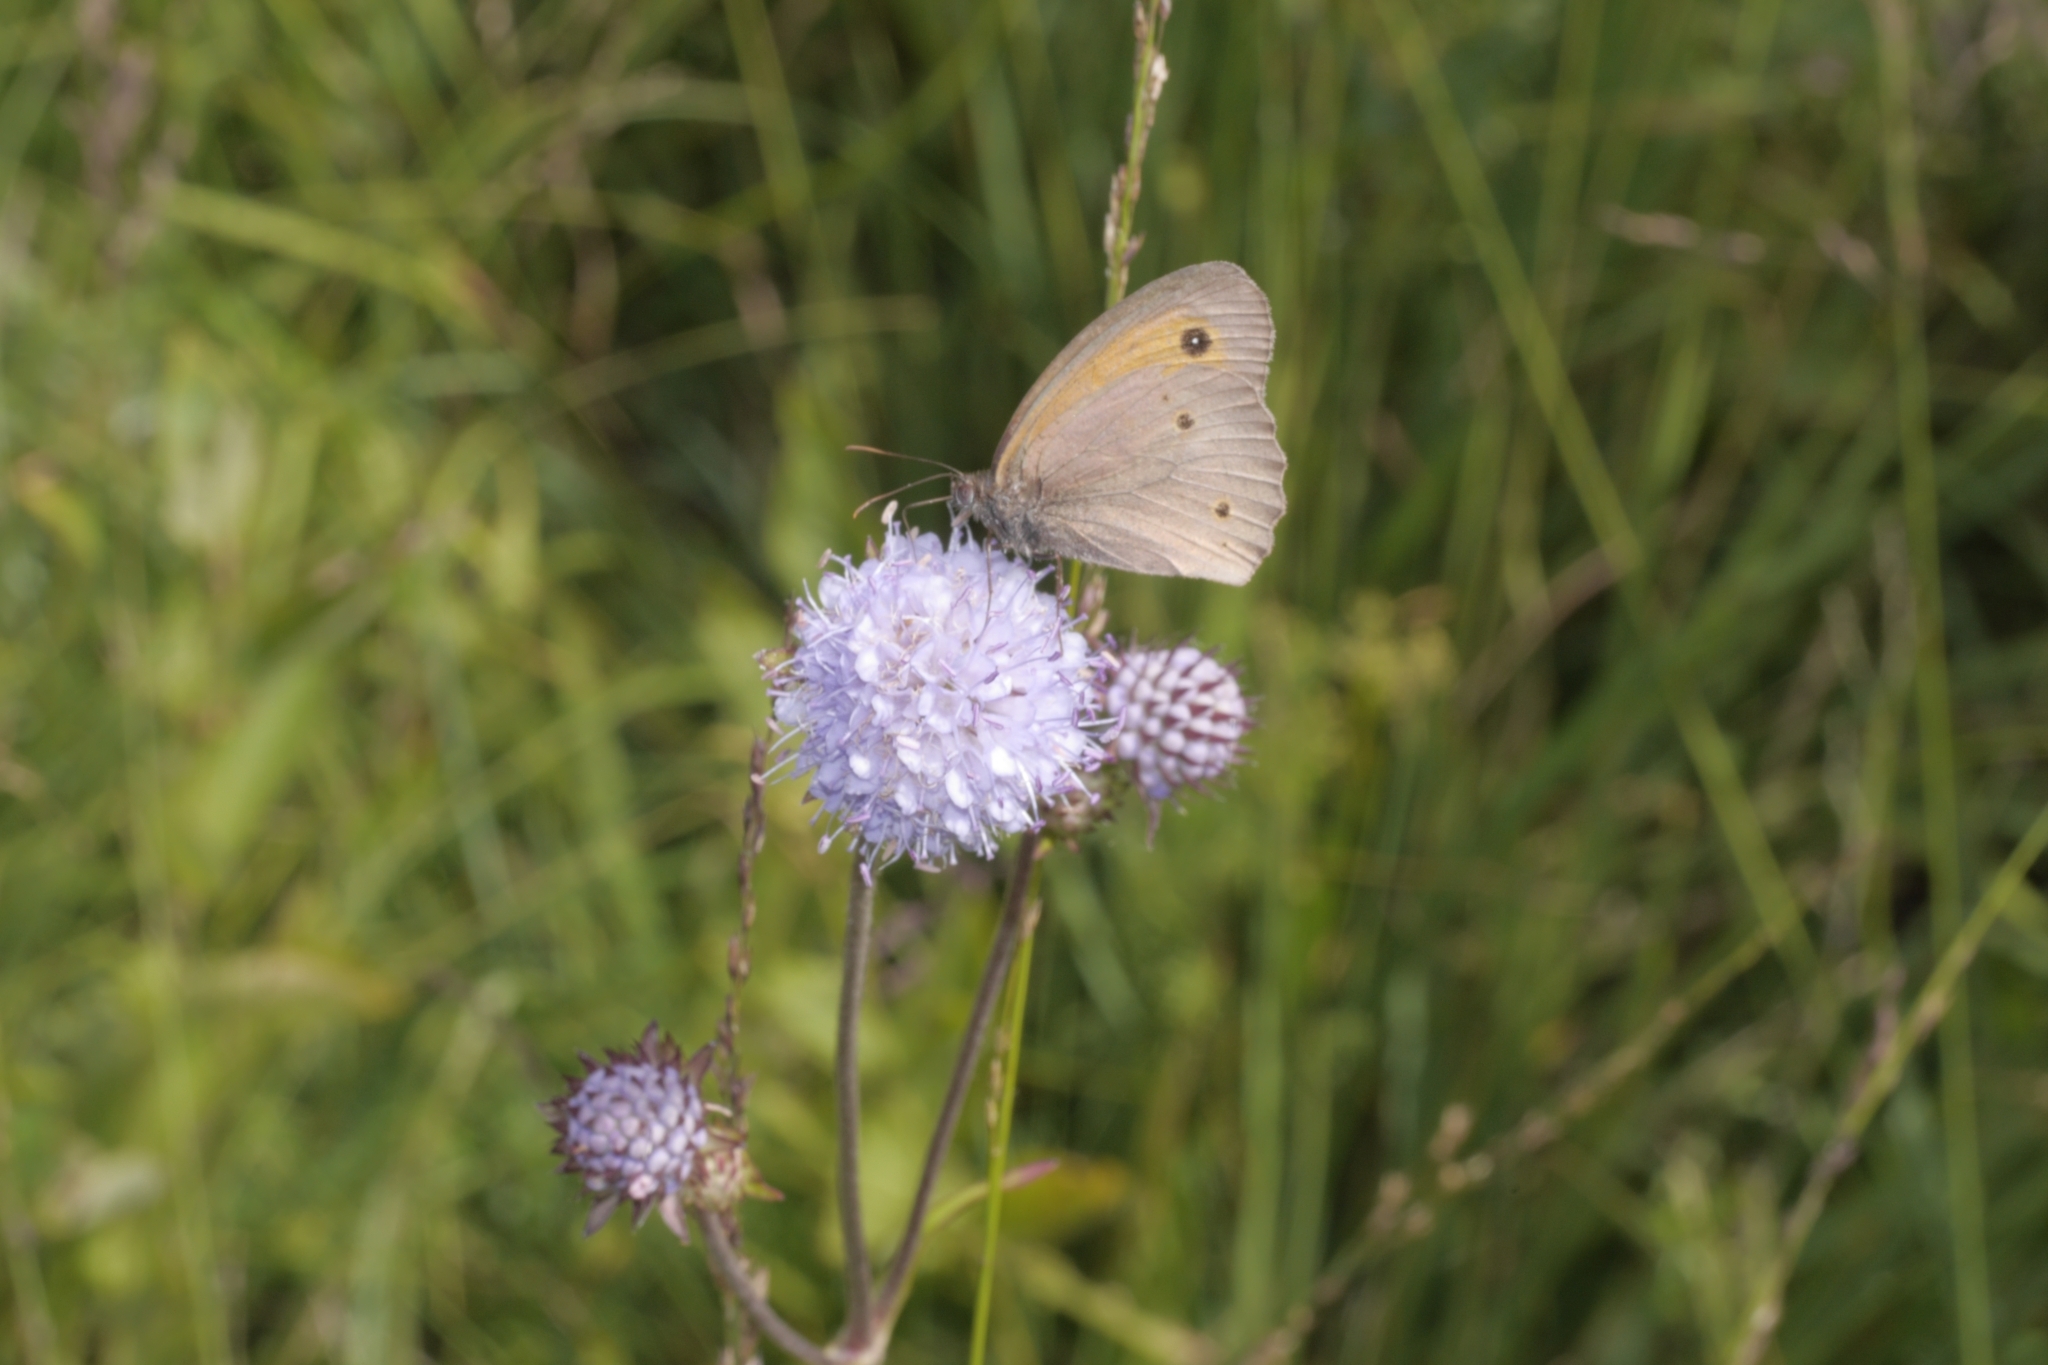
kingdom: Animalia
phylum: Arthropoda
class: Insecta
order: Lepidoptera
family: Nymphalidae
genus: Maniola
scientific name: Maniola jurtina
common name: Meadow brown
